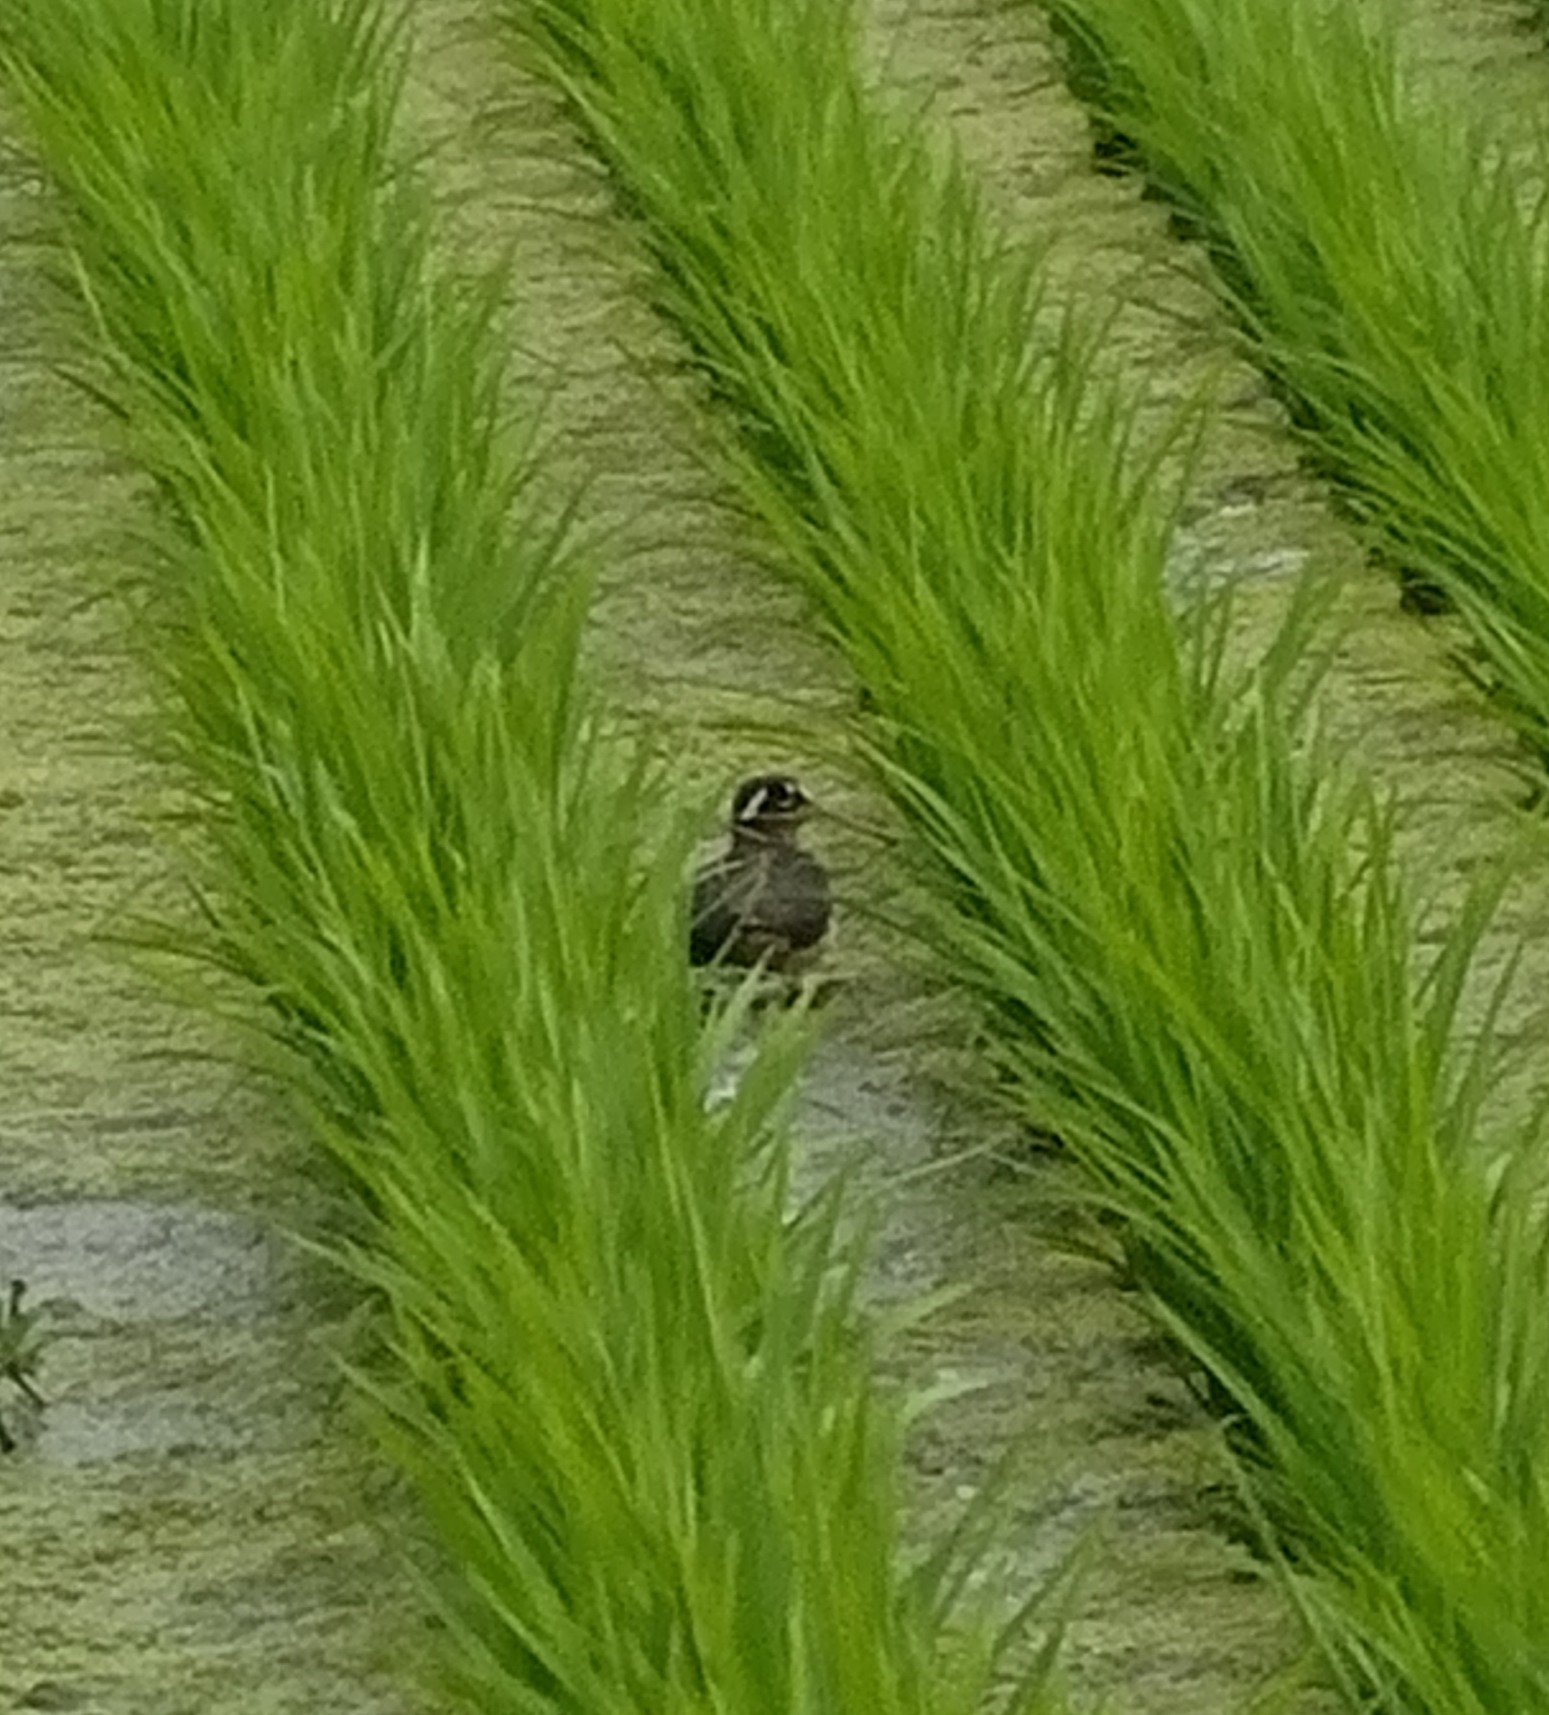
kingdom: Animalia
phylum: Chordata
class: Aves
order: Charadriiformes
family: Rostratulidae
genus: Rostratula
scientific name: Rostratula benghalensis
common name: Greater painted-snipe
